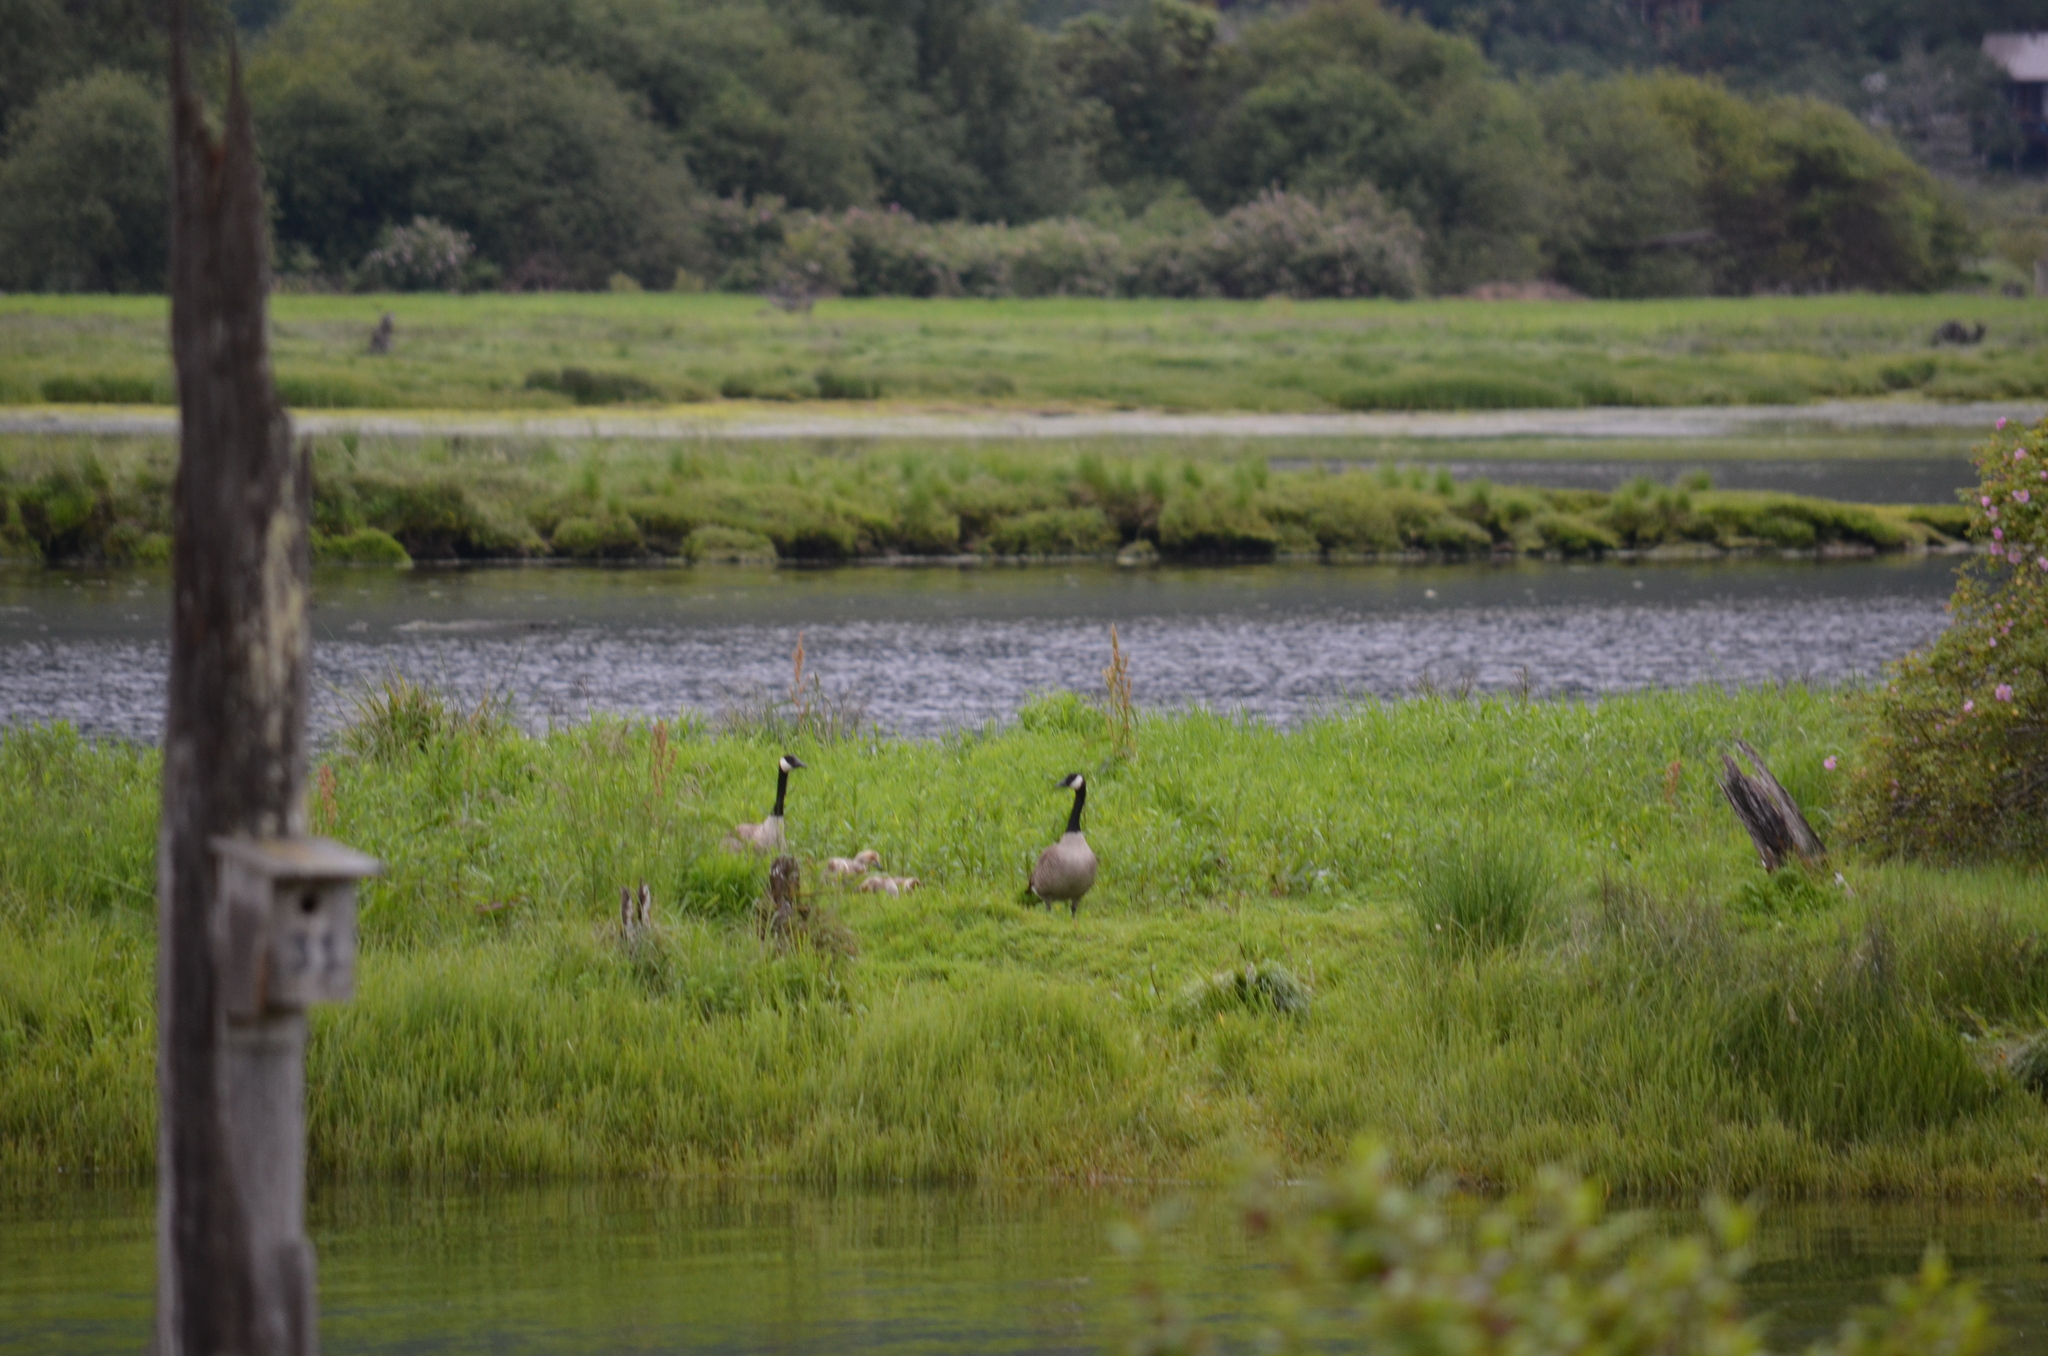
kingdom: Animalia
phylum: Chordata
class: Aves
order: Anseriformes
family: Anatidae
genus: Branta
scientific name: Branta canadensis
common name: Canada goose
